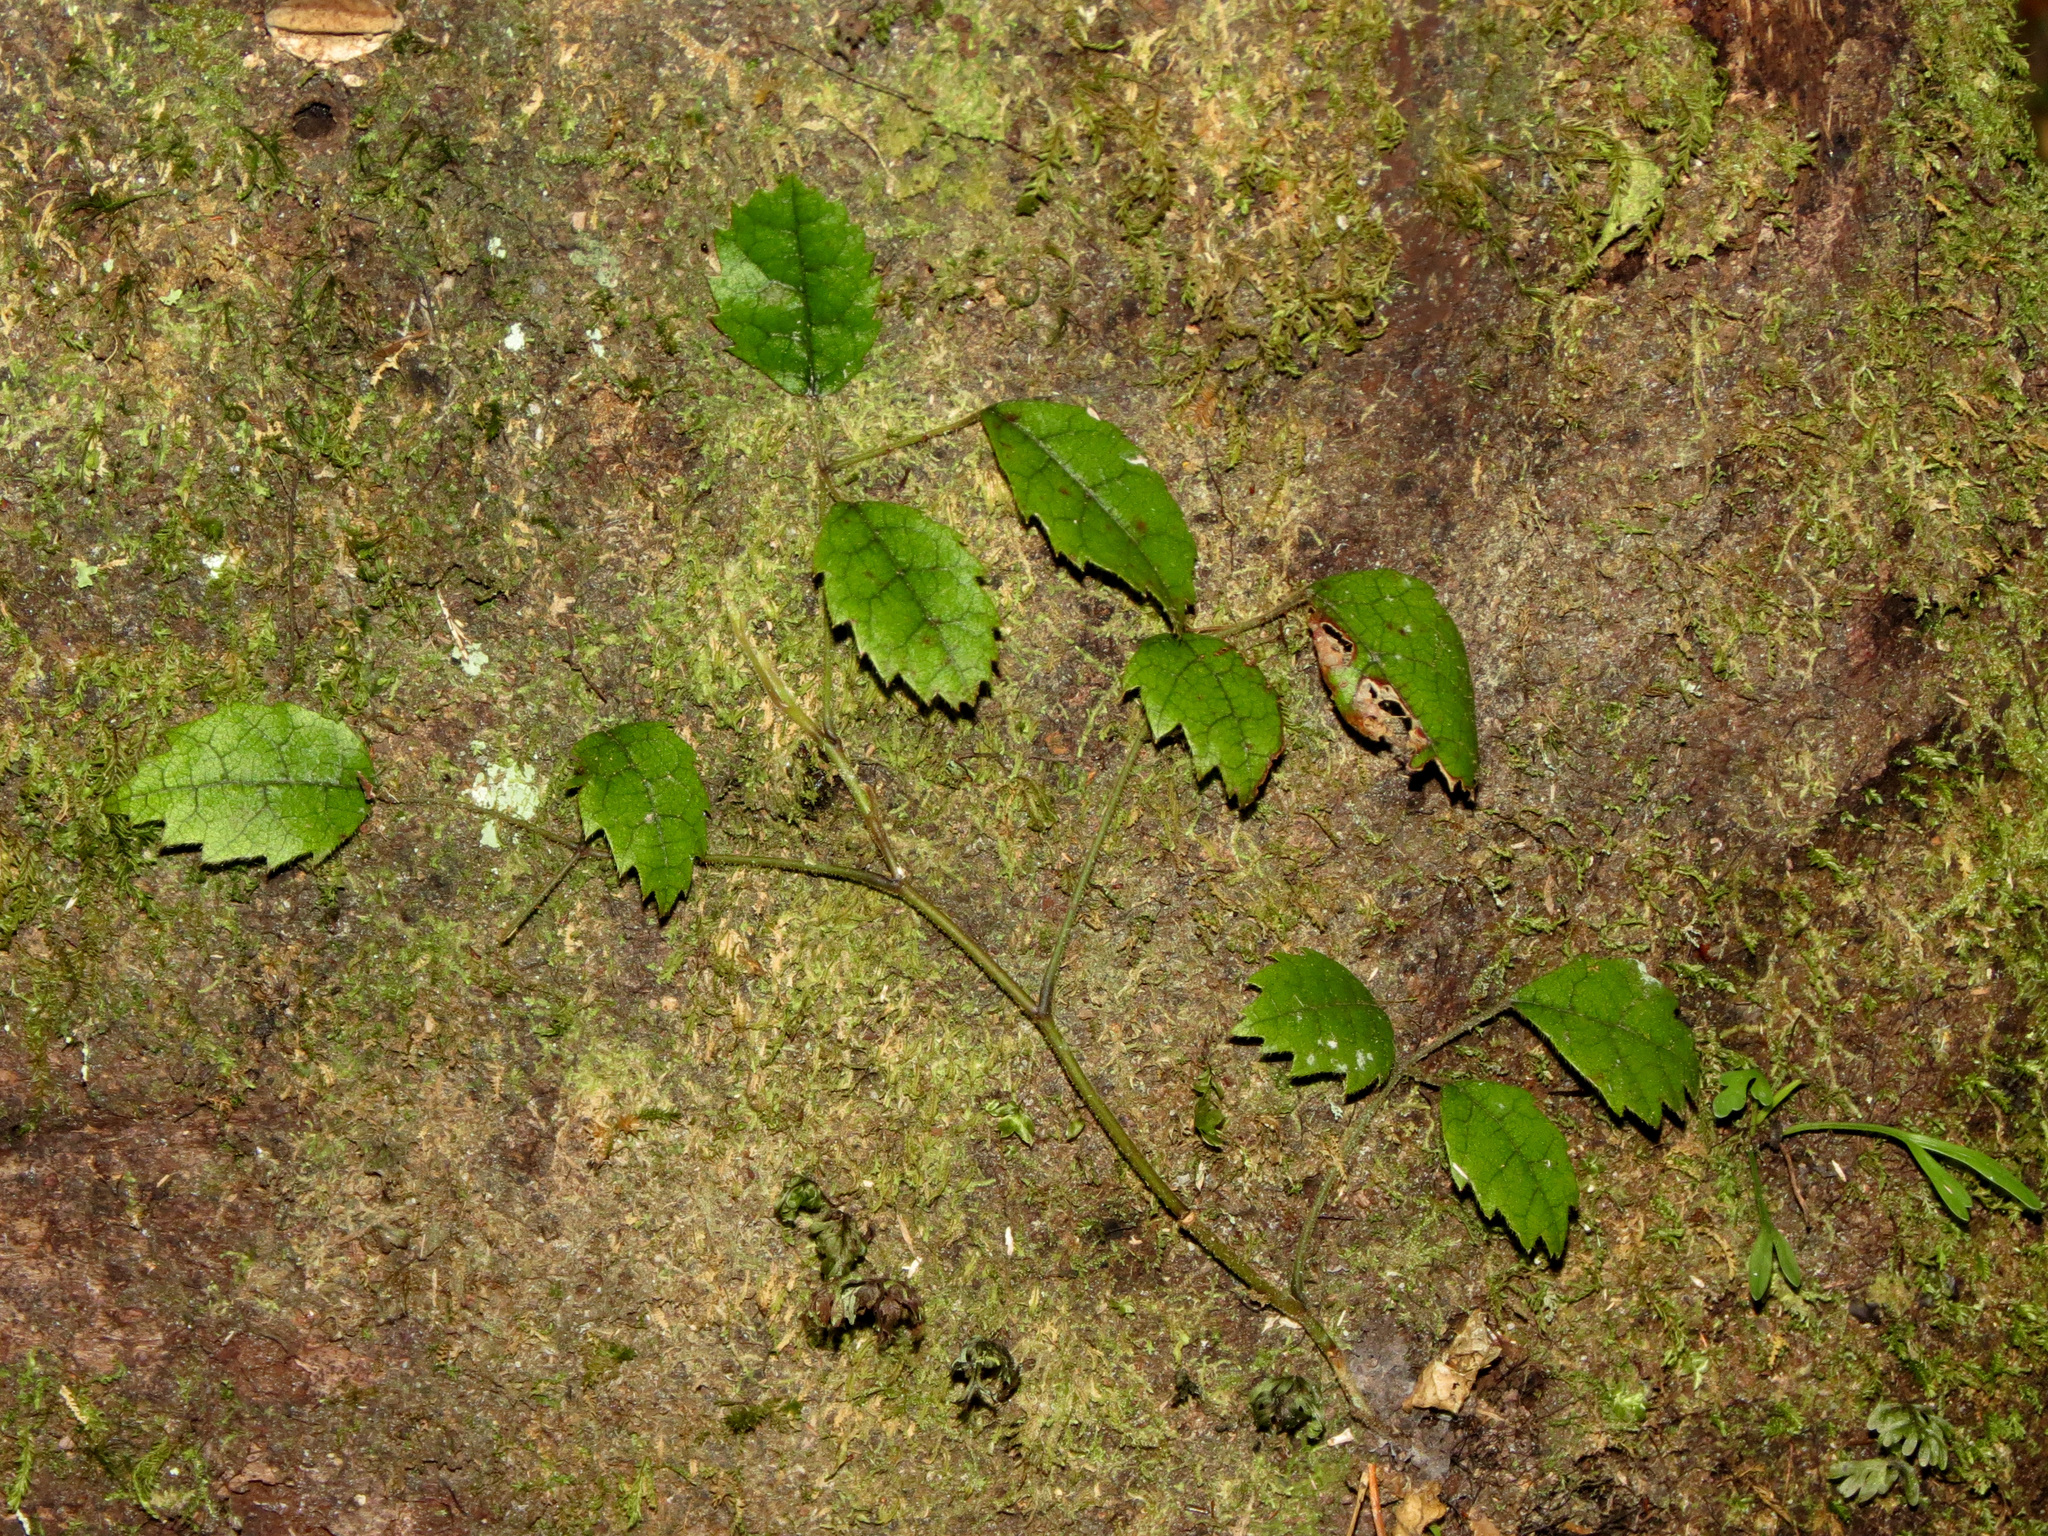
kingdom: Plantae
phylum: Tracheophyta
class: Magnoliopsida
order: Rosales
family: Rosaceae
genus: Rubus
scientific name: Rubus australis
